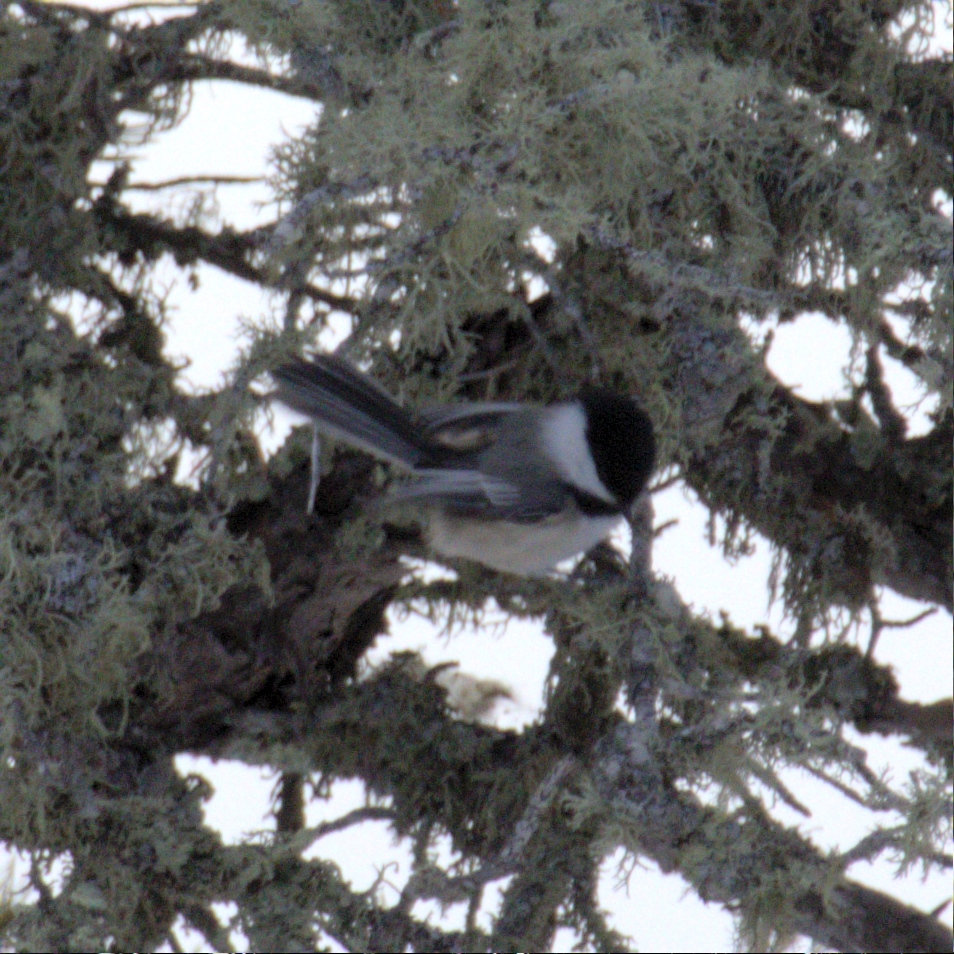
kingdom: Animalia
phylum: Chordata
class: Aves
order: Passeriformes
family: Paridae
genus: Poecile
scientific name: Poecile atricapillus
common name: Black-capped chickadee
